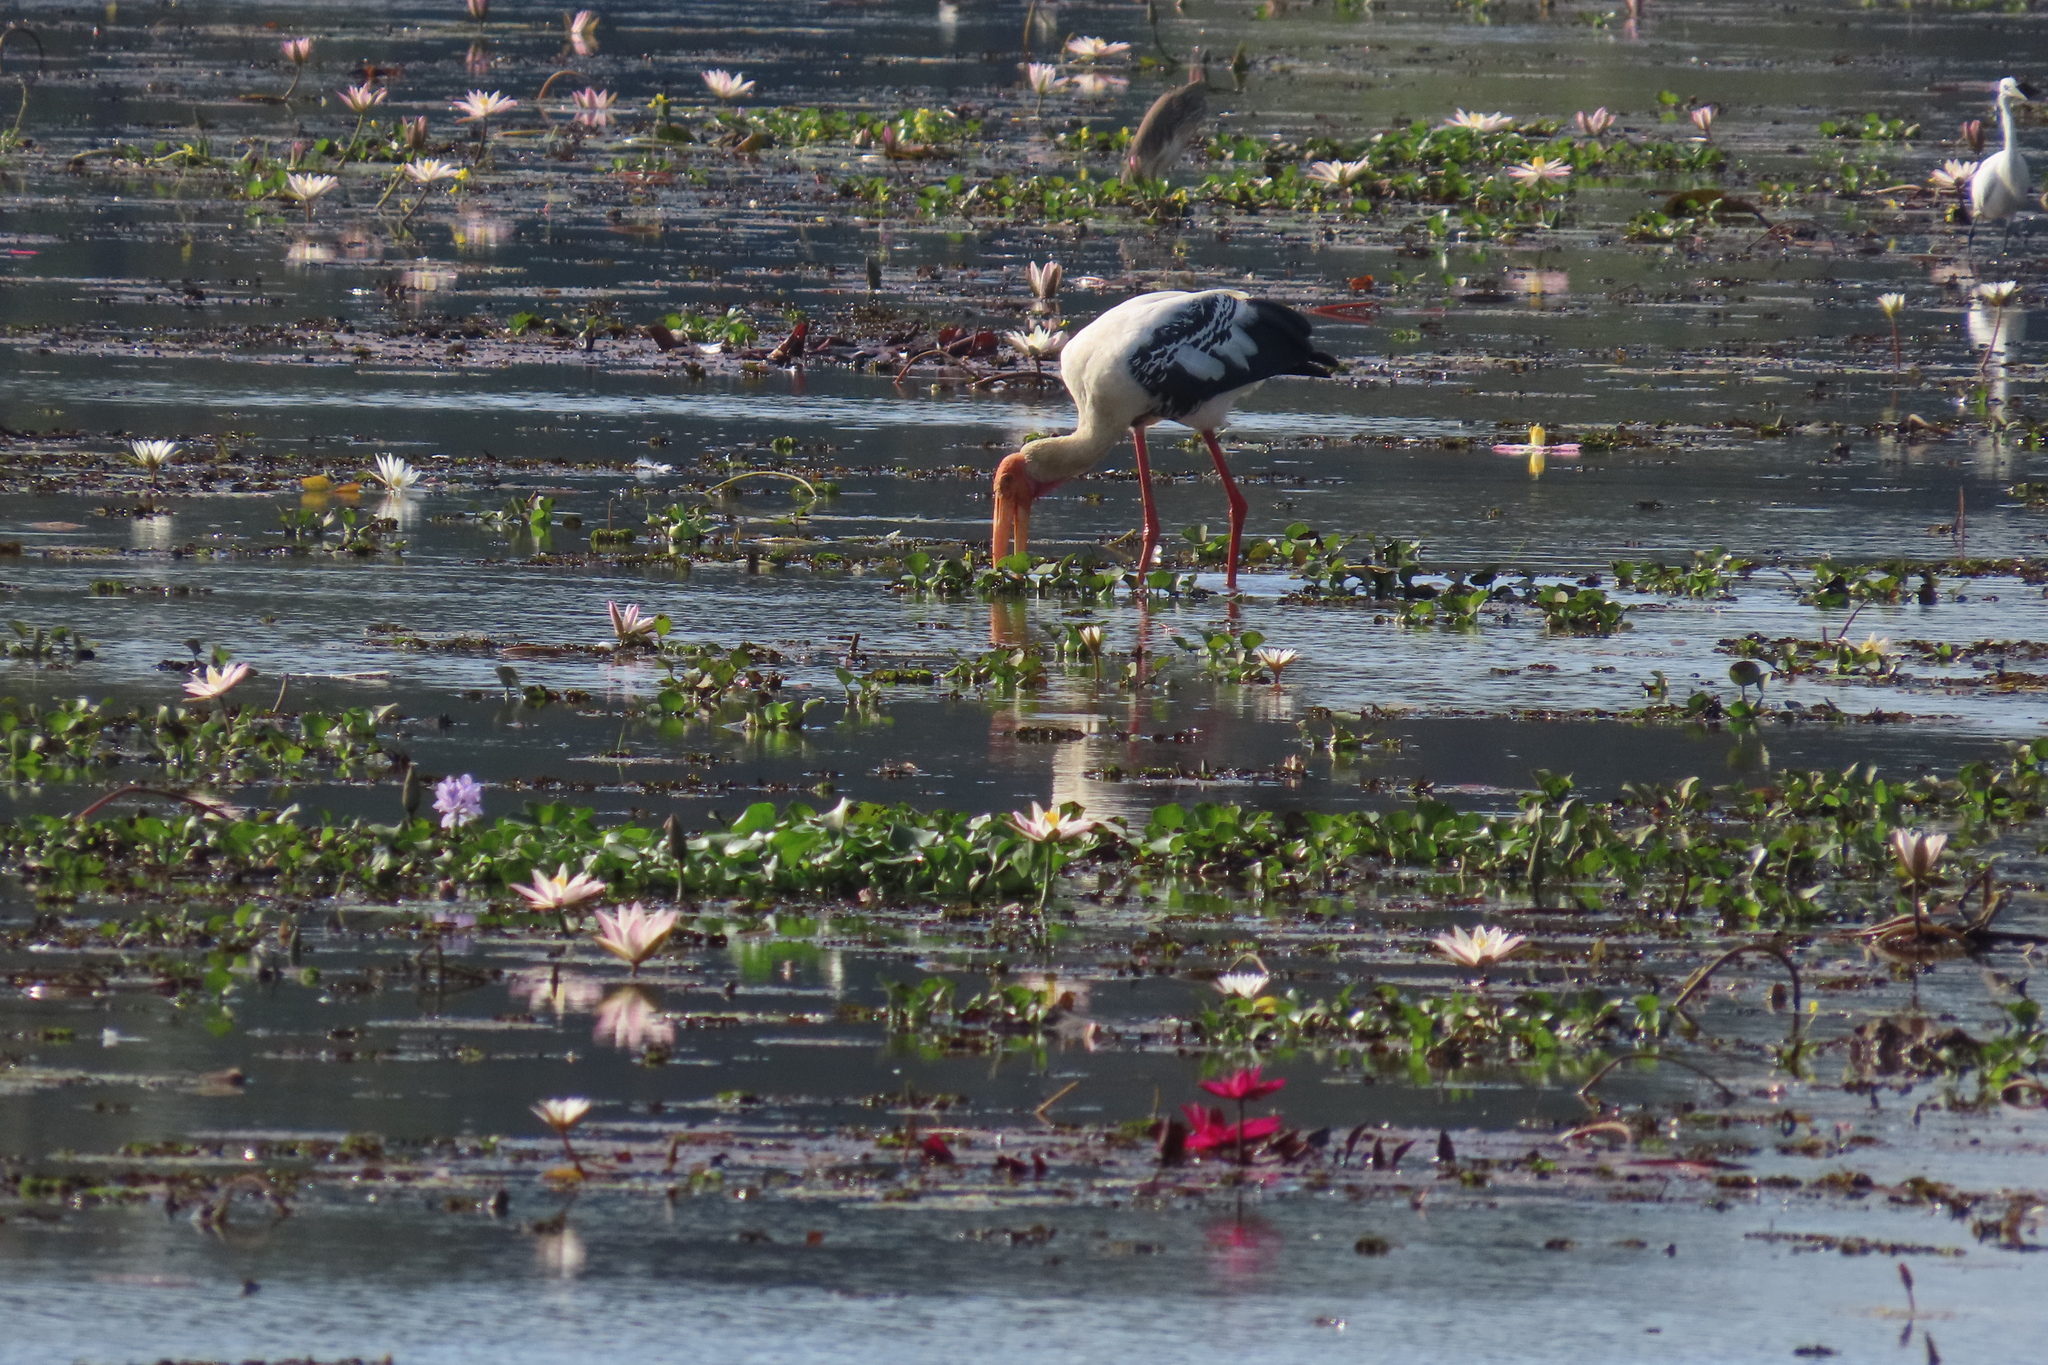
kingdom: Animalia
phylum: Chordata
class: Aves
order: Pelecaniformes
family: Ardeidae
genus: Ardeola
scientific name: Ardeola grayii
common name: Indian pond heron
